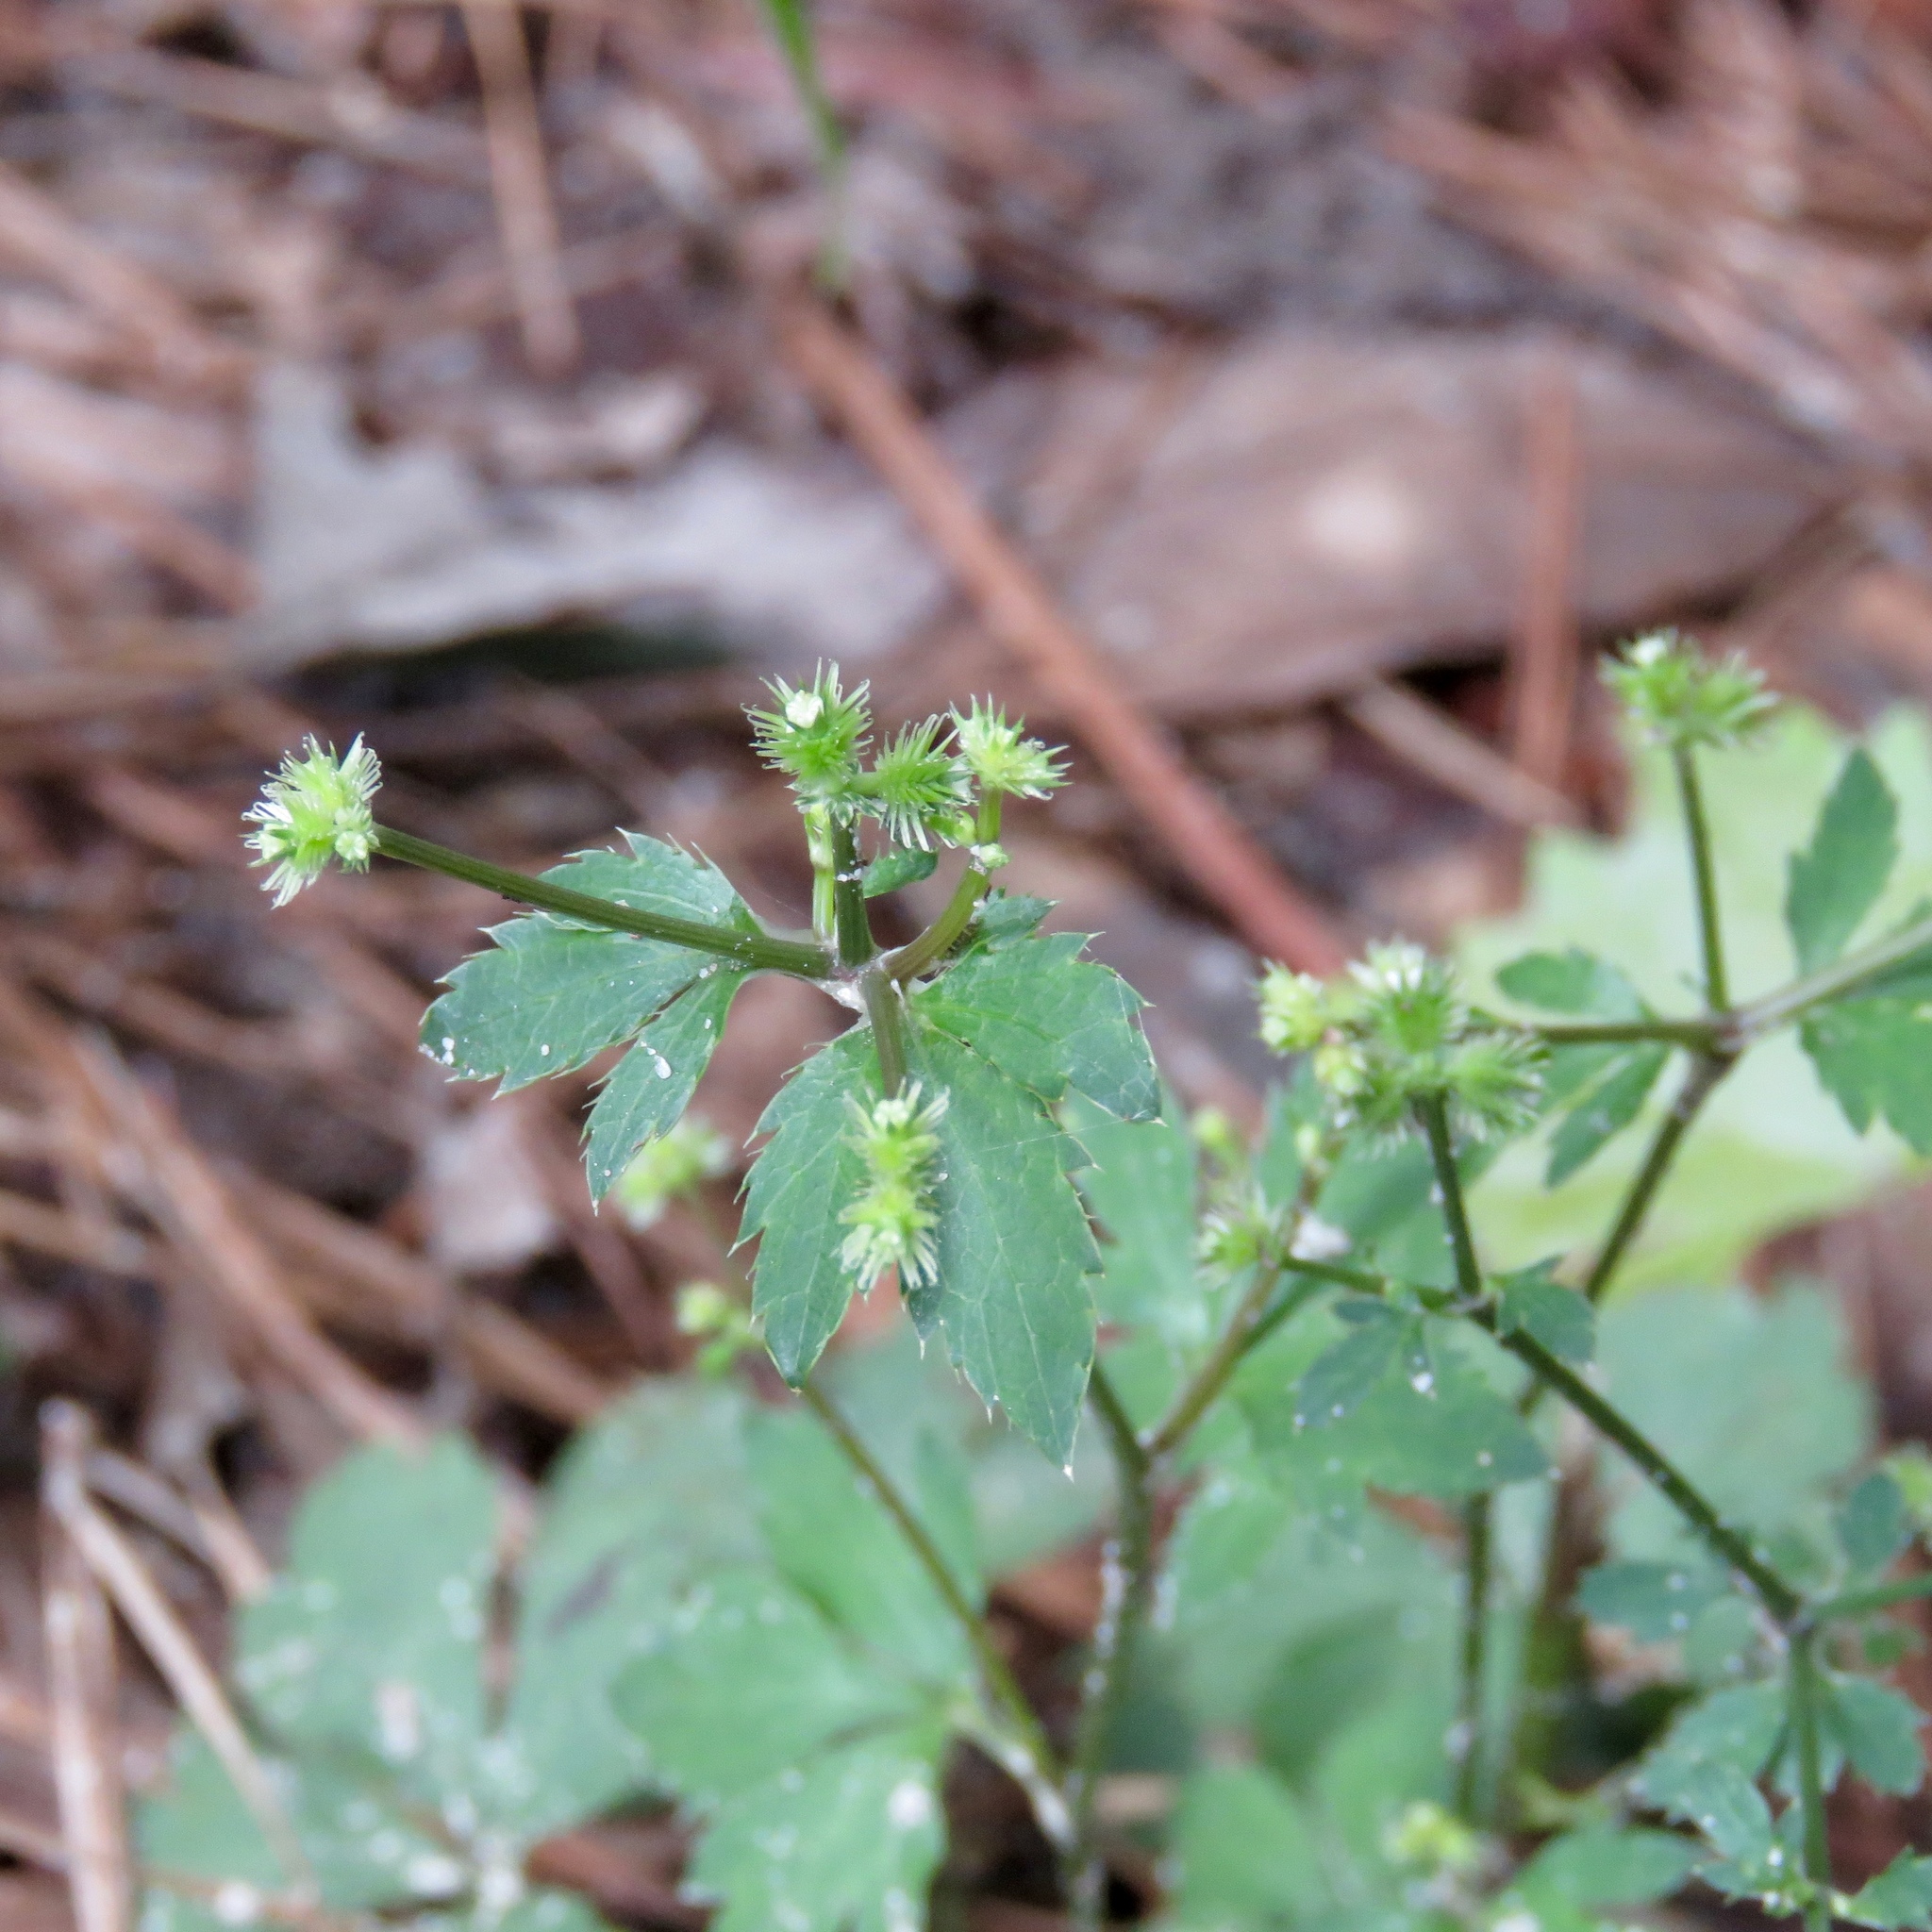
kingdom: Plantae
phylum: Tracheophyta
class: Magnoliopsida
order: Apiales
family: Apiaceae
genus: Sanicula
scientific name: Sanicula canadensis
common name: Canada sanicle
